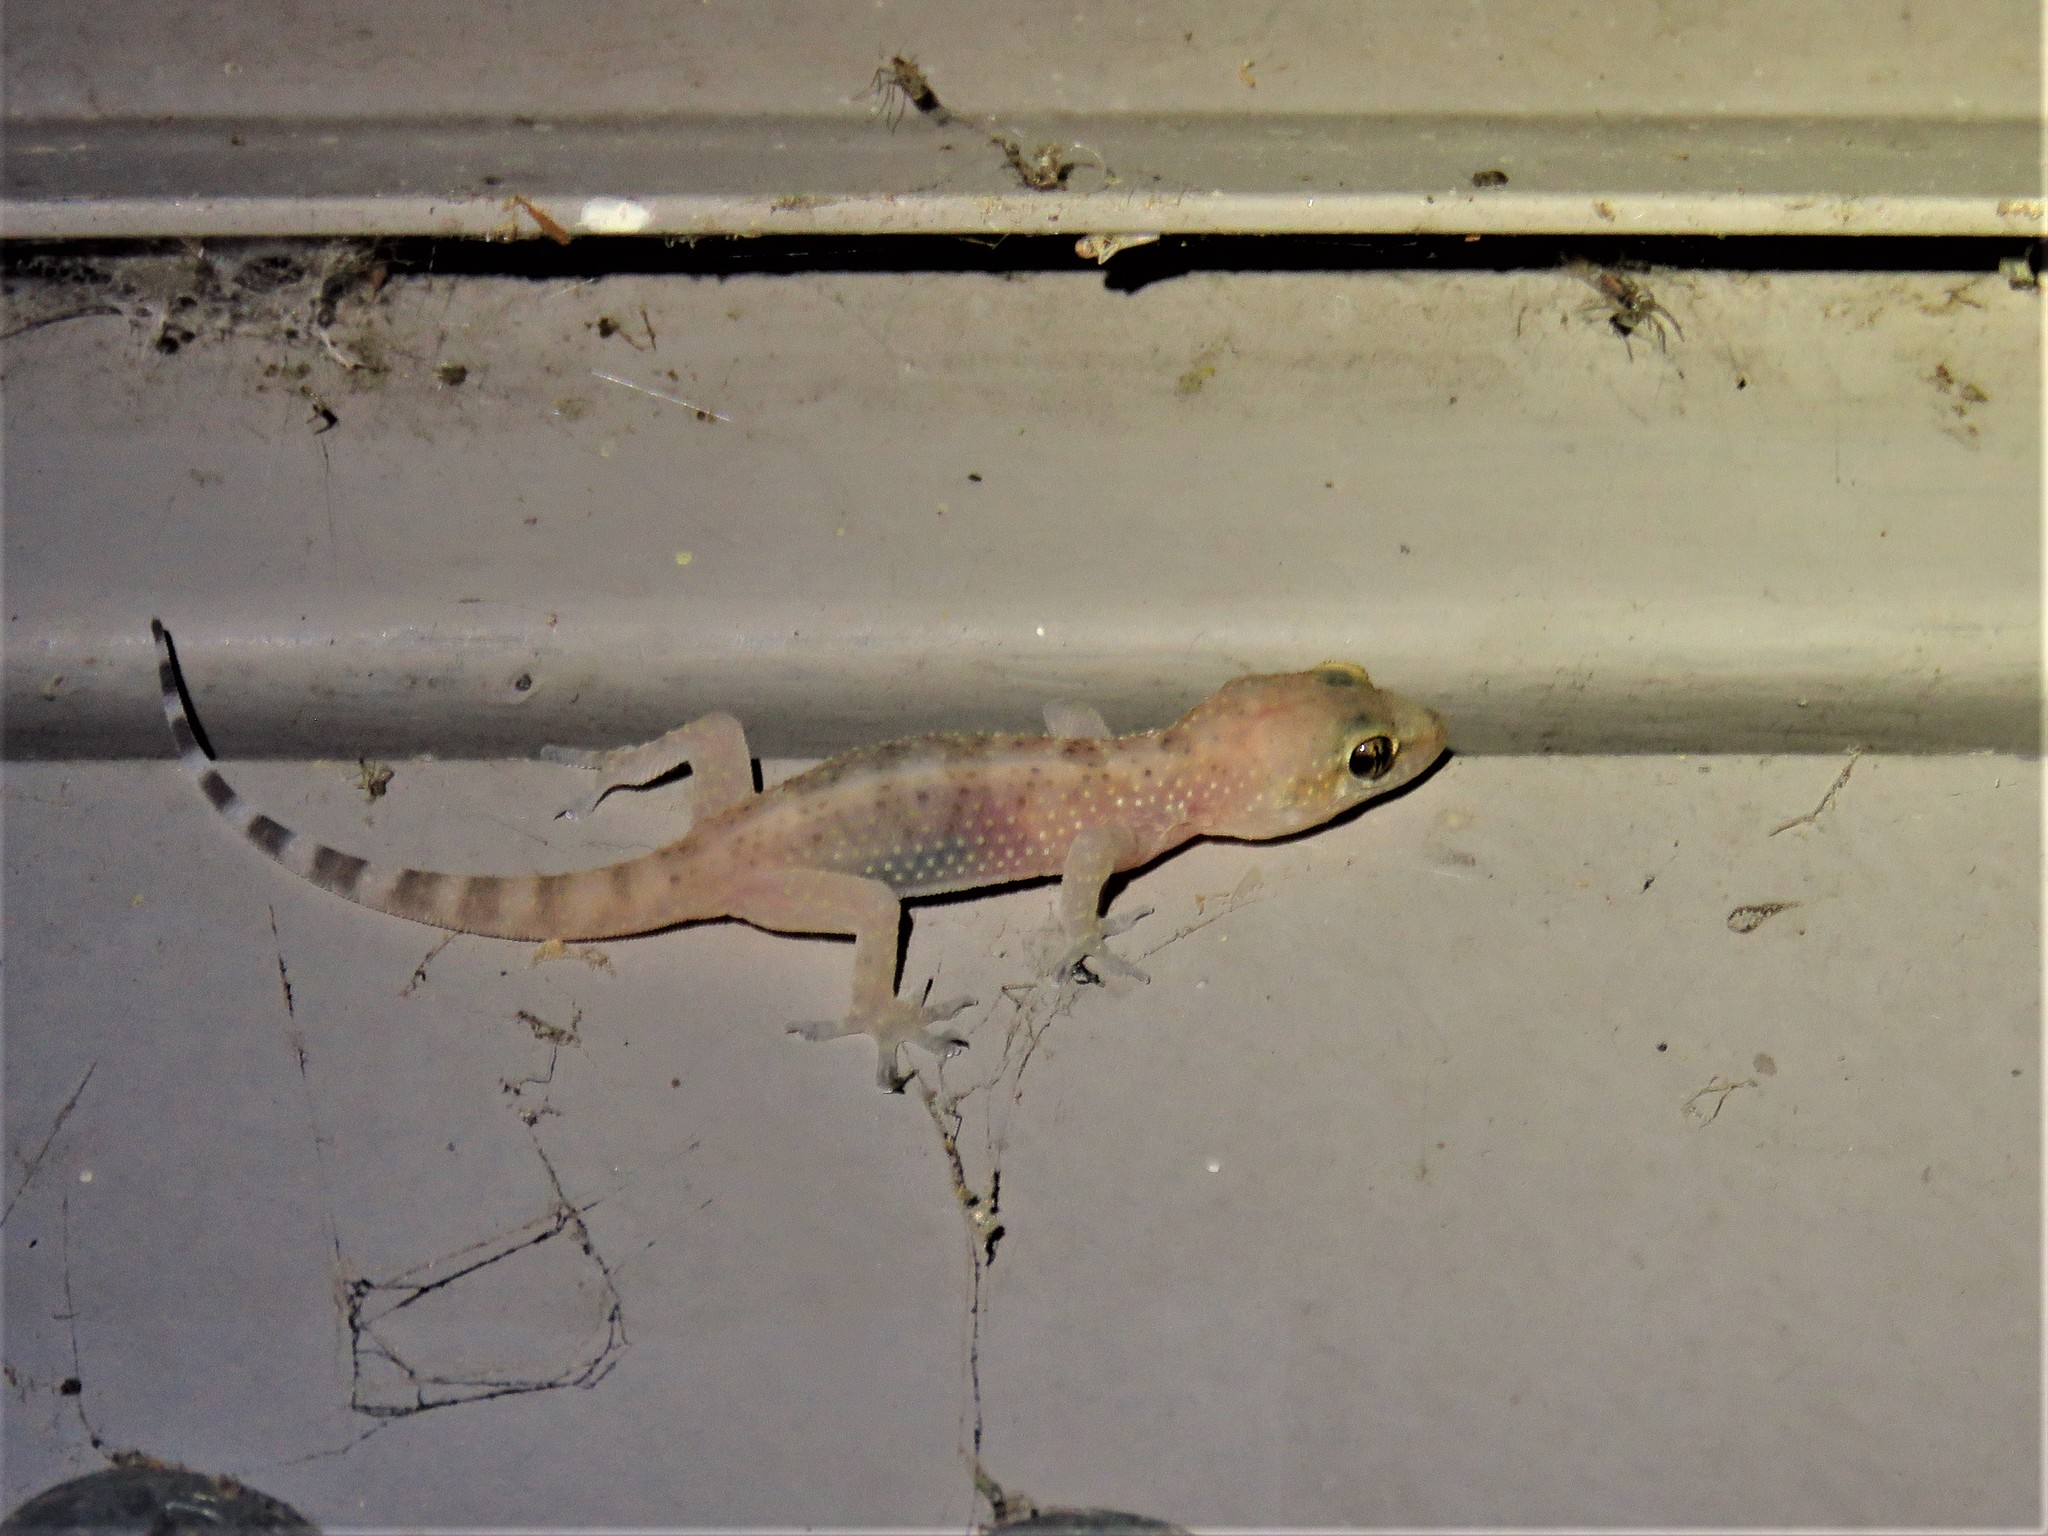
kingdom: Animalia
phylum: Chordata
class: Squamata
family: Gekkonidae
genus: Hemidactylus
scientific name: Hemidactylus turcicus
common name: Turkish gecko
